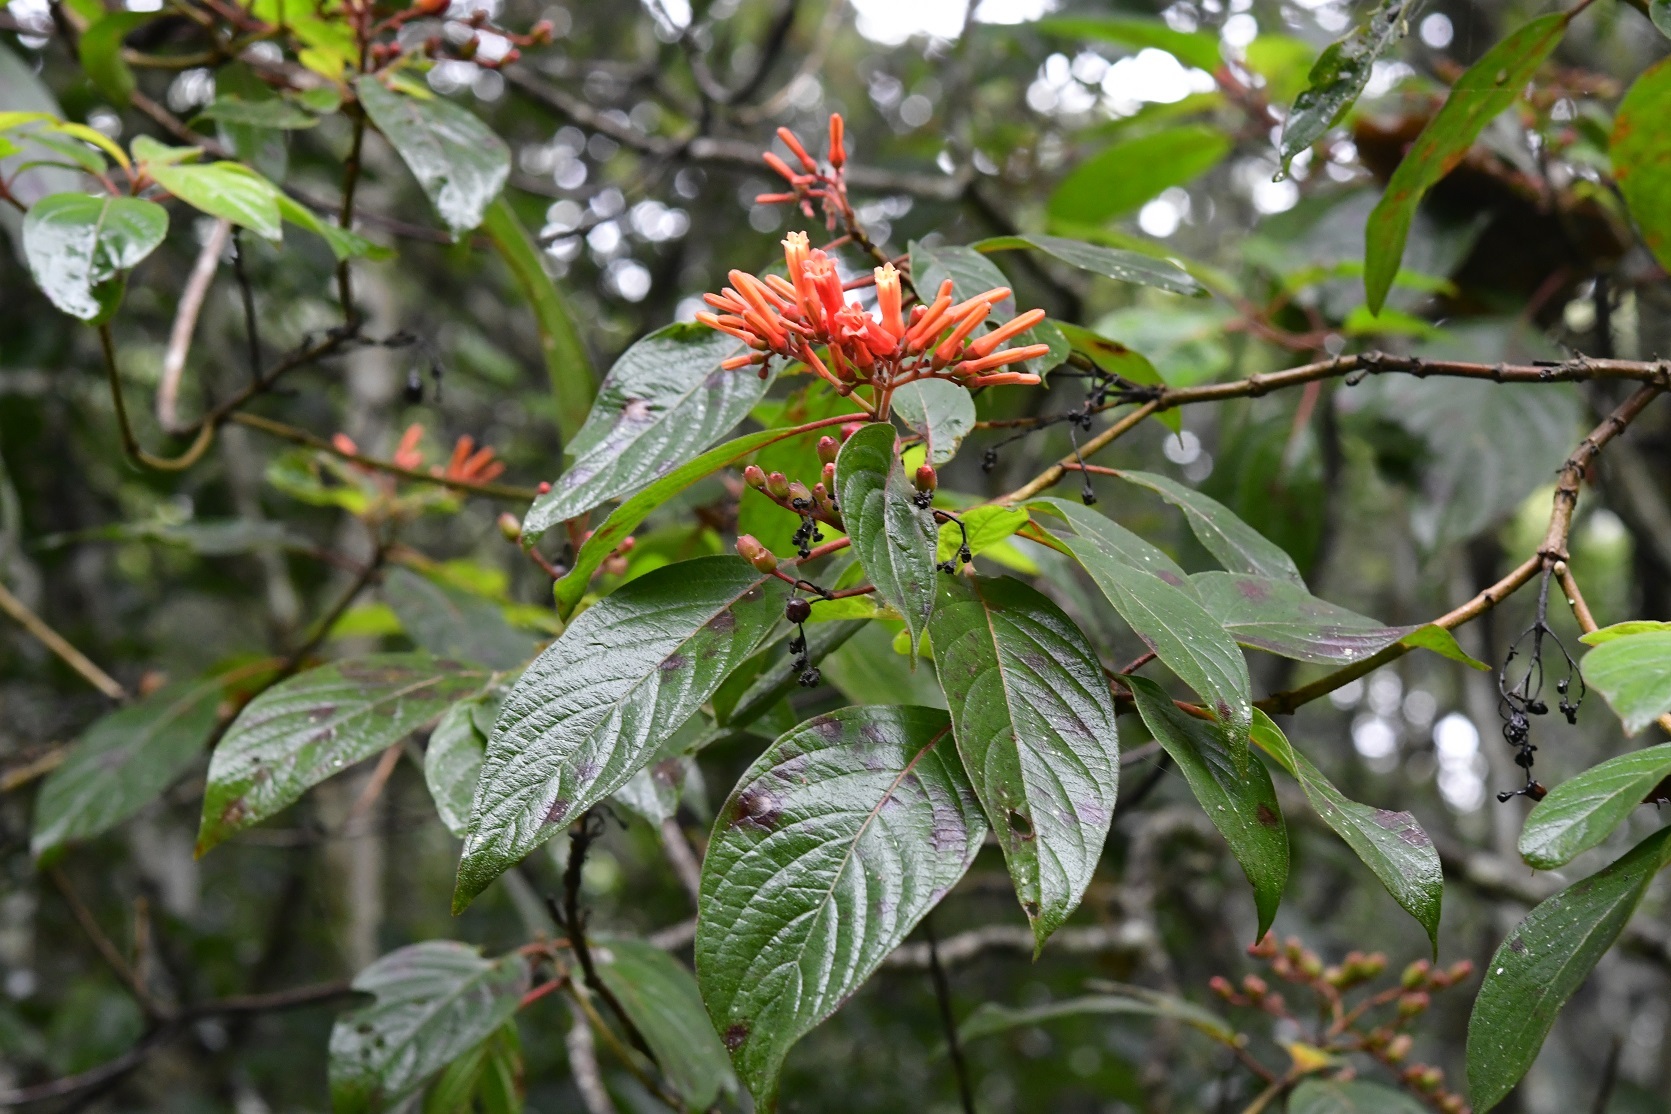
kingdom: Plantae
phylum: Tracheophyta
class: Magnoliopsida
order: Gentianales
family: Rubiaceae
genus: Hamelia
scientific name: Hamelia patens
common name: Redhead
